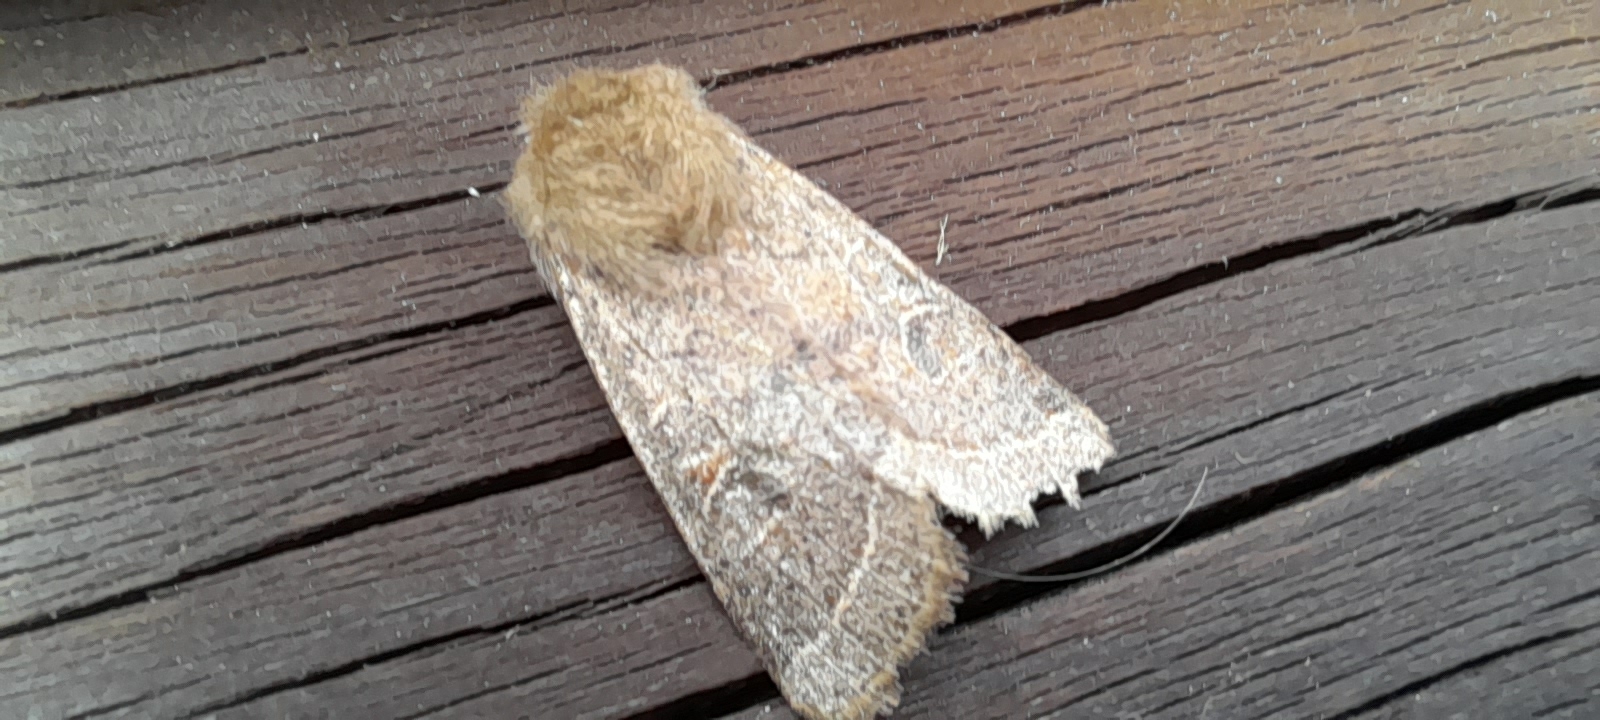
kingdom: Animalia
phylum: Arthropoda
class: Insecta
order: Lepidoptera
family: Noctuidae
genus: Orthosia
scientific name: Orthosia cerasi
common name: Common quaker
